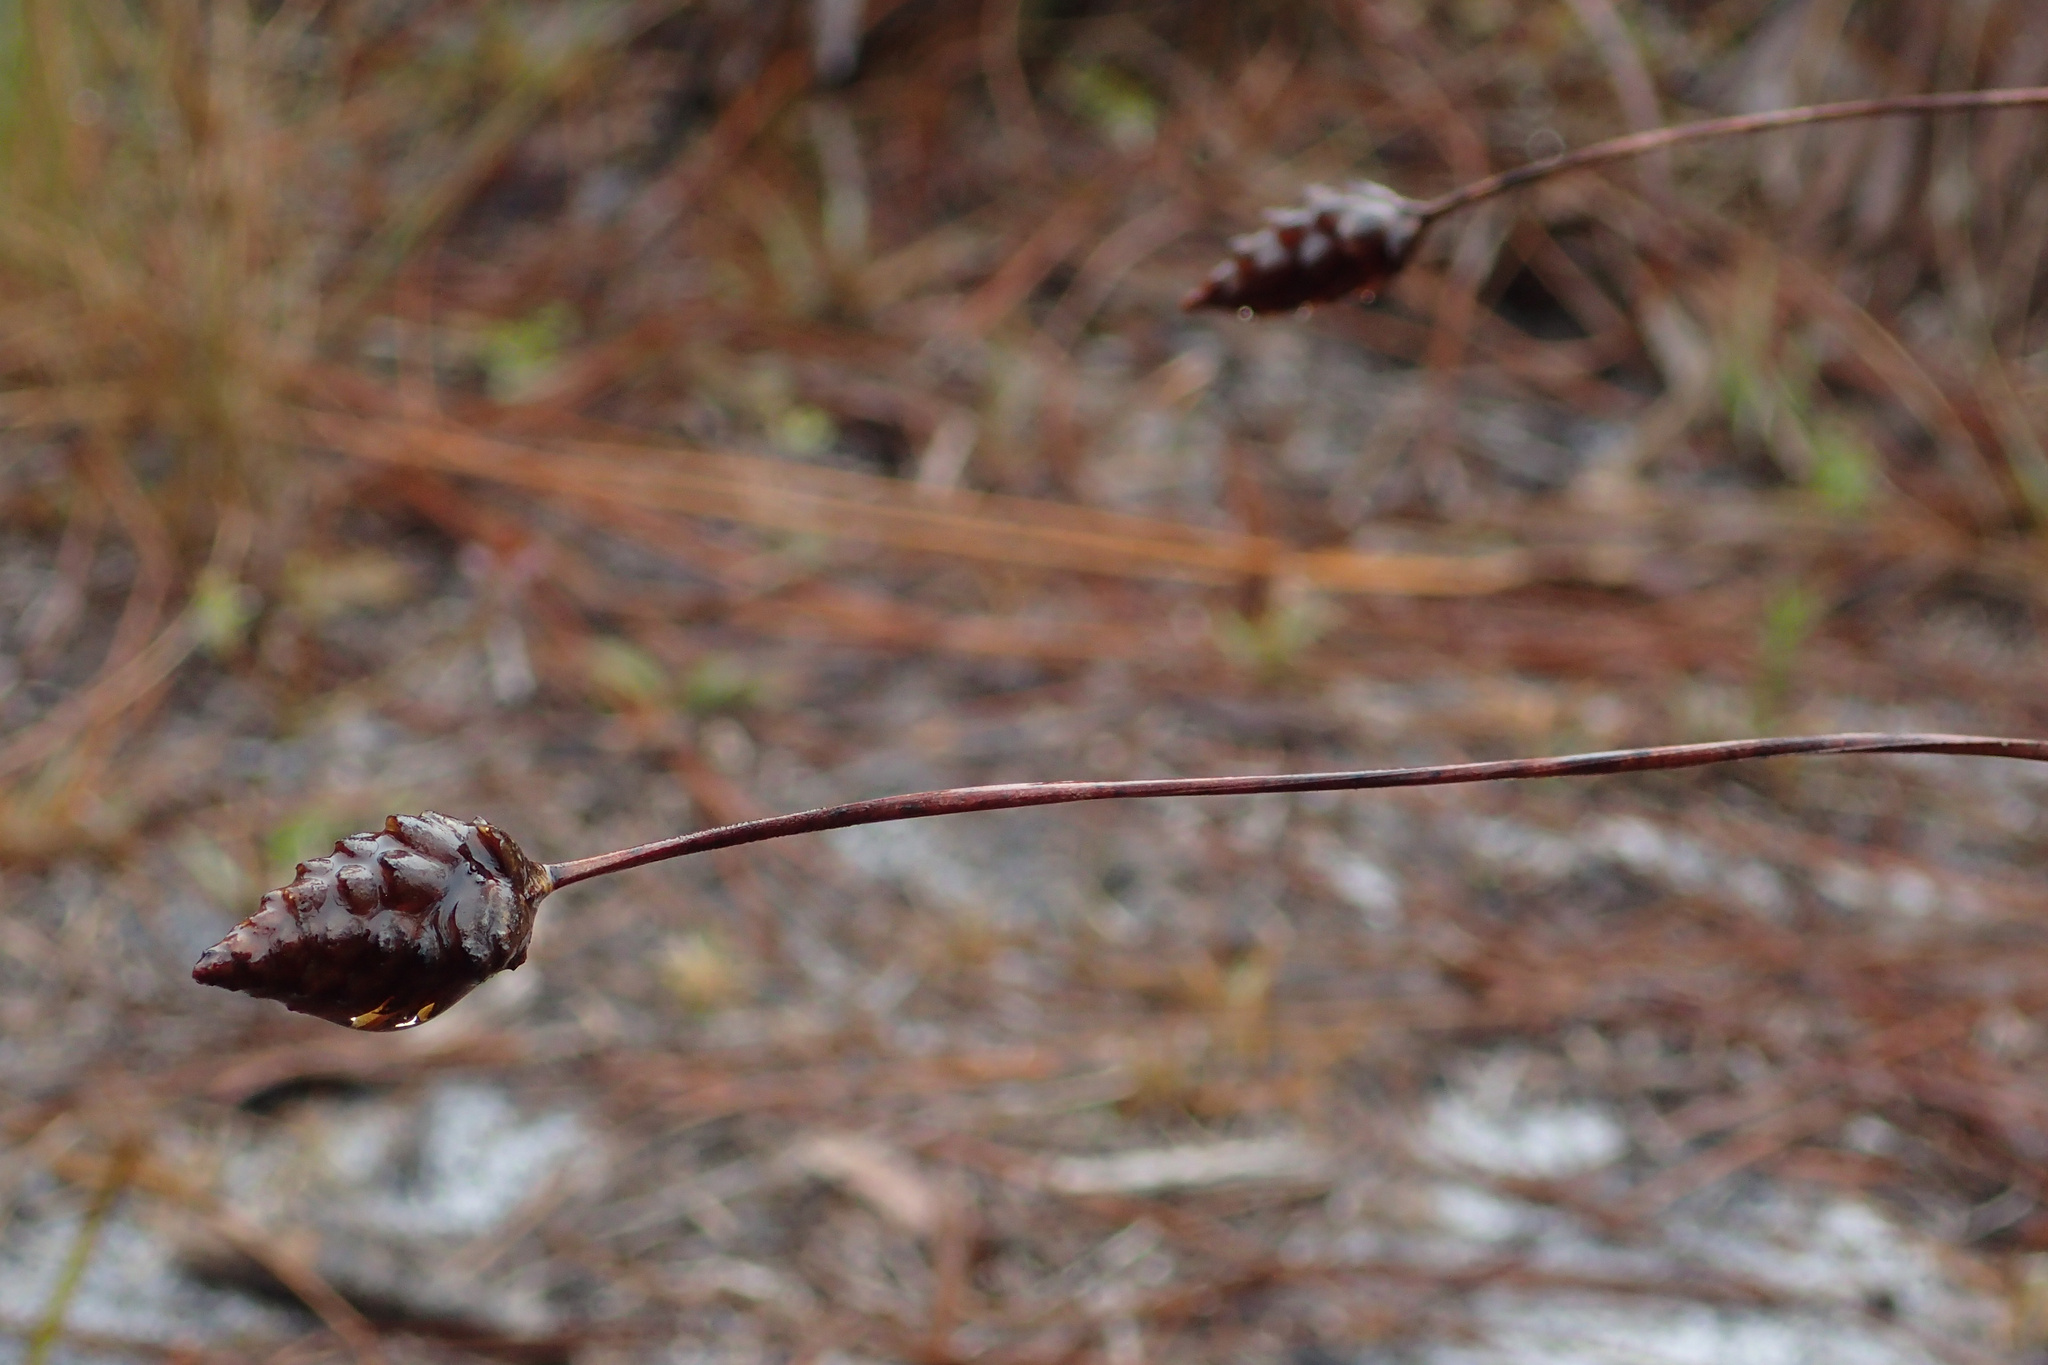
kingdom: Plantae
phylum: Tracheophyta
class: Liliopsida
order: Poales
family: Xyridaceae
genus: Xyris
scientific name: Xyris caroliniana
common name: Carolina yellow-eyed-grass
